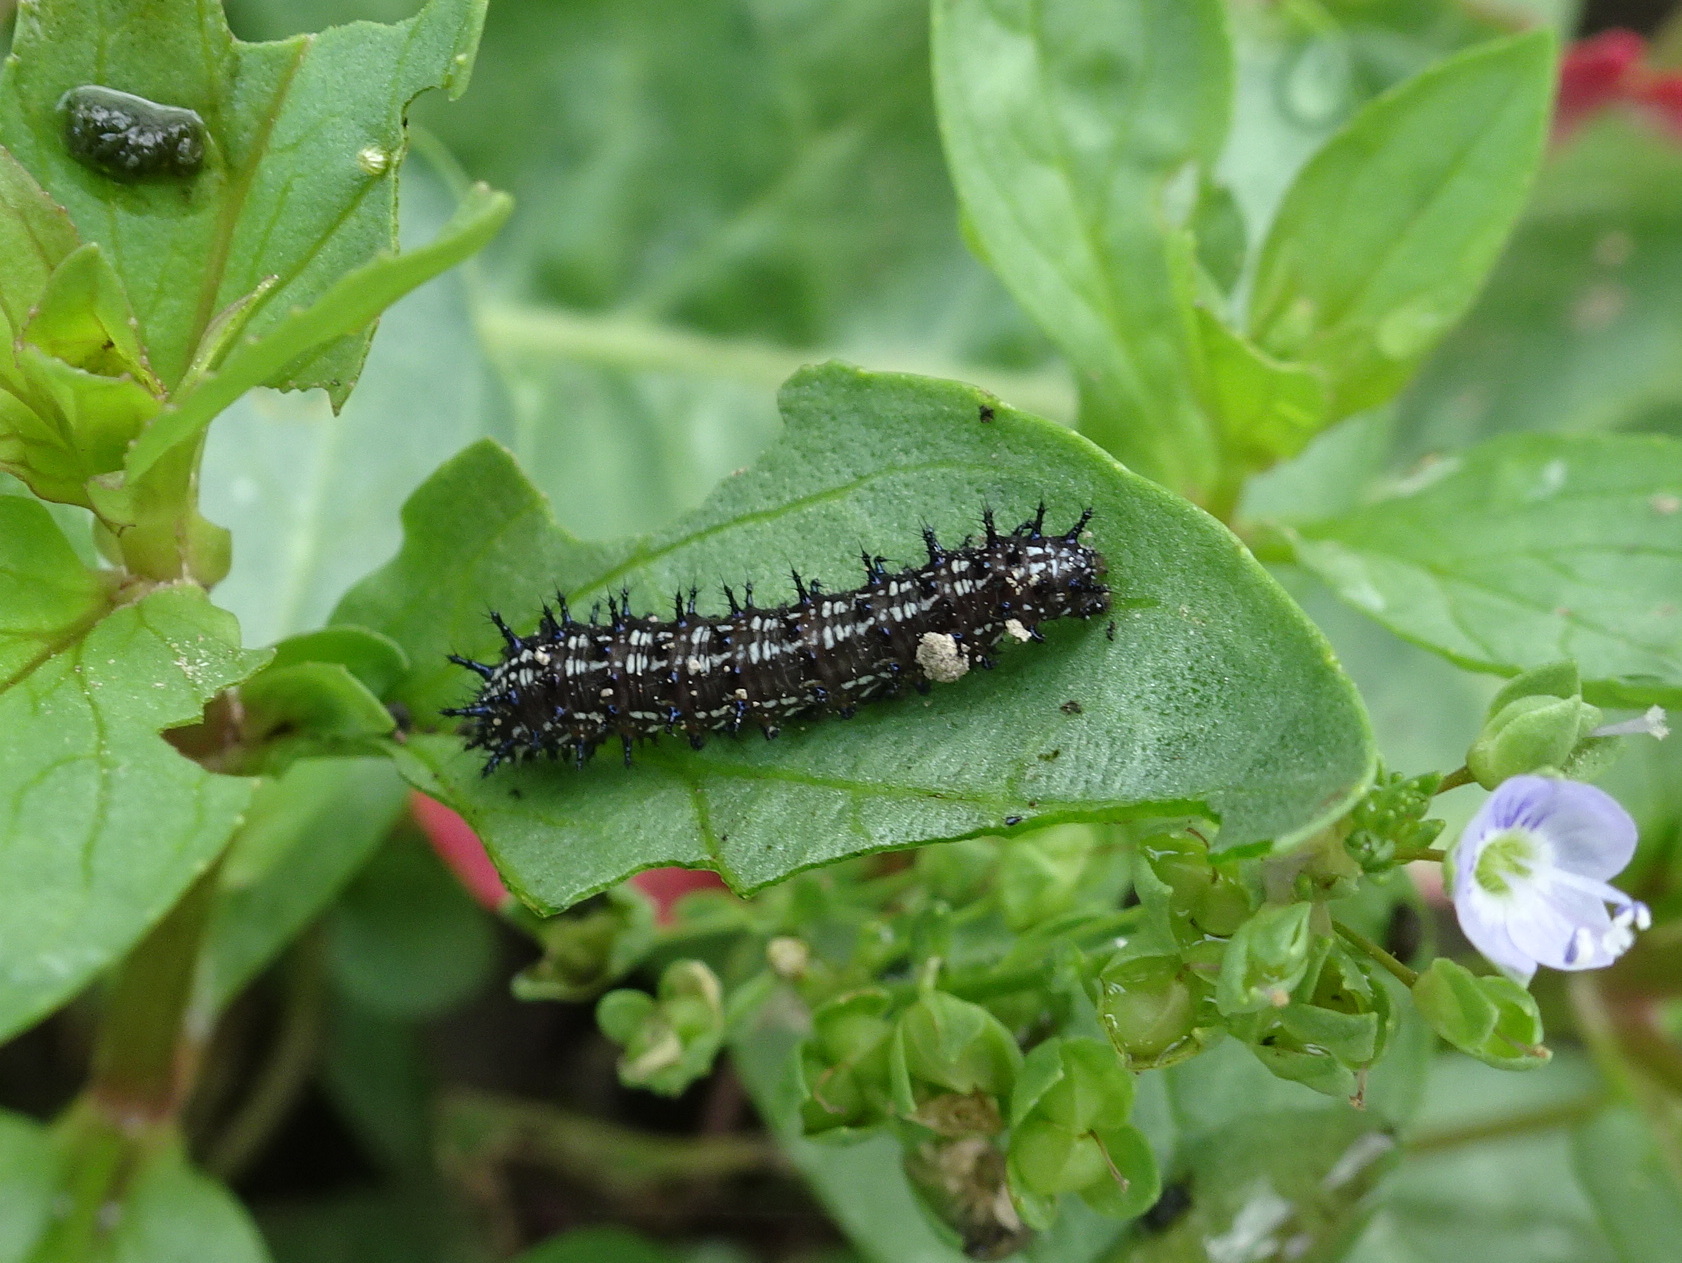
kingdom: Animalia
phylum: Arthropoda
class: Insecta
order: Lepidoptera
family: Nymphalidae
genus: Junonia
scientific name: Junonia coenia
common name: Common buckeye
